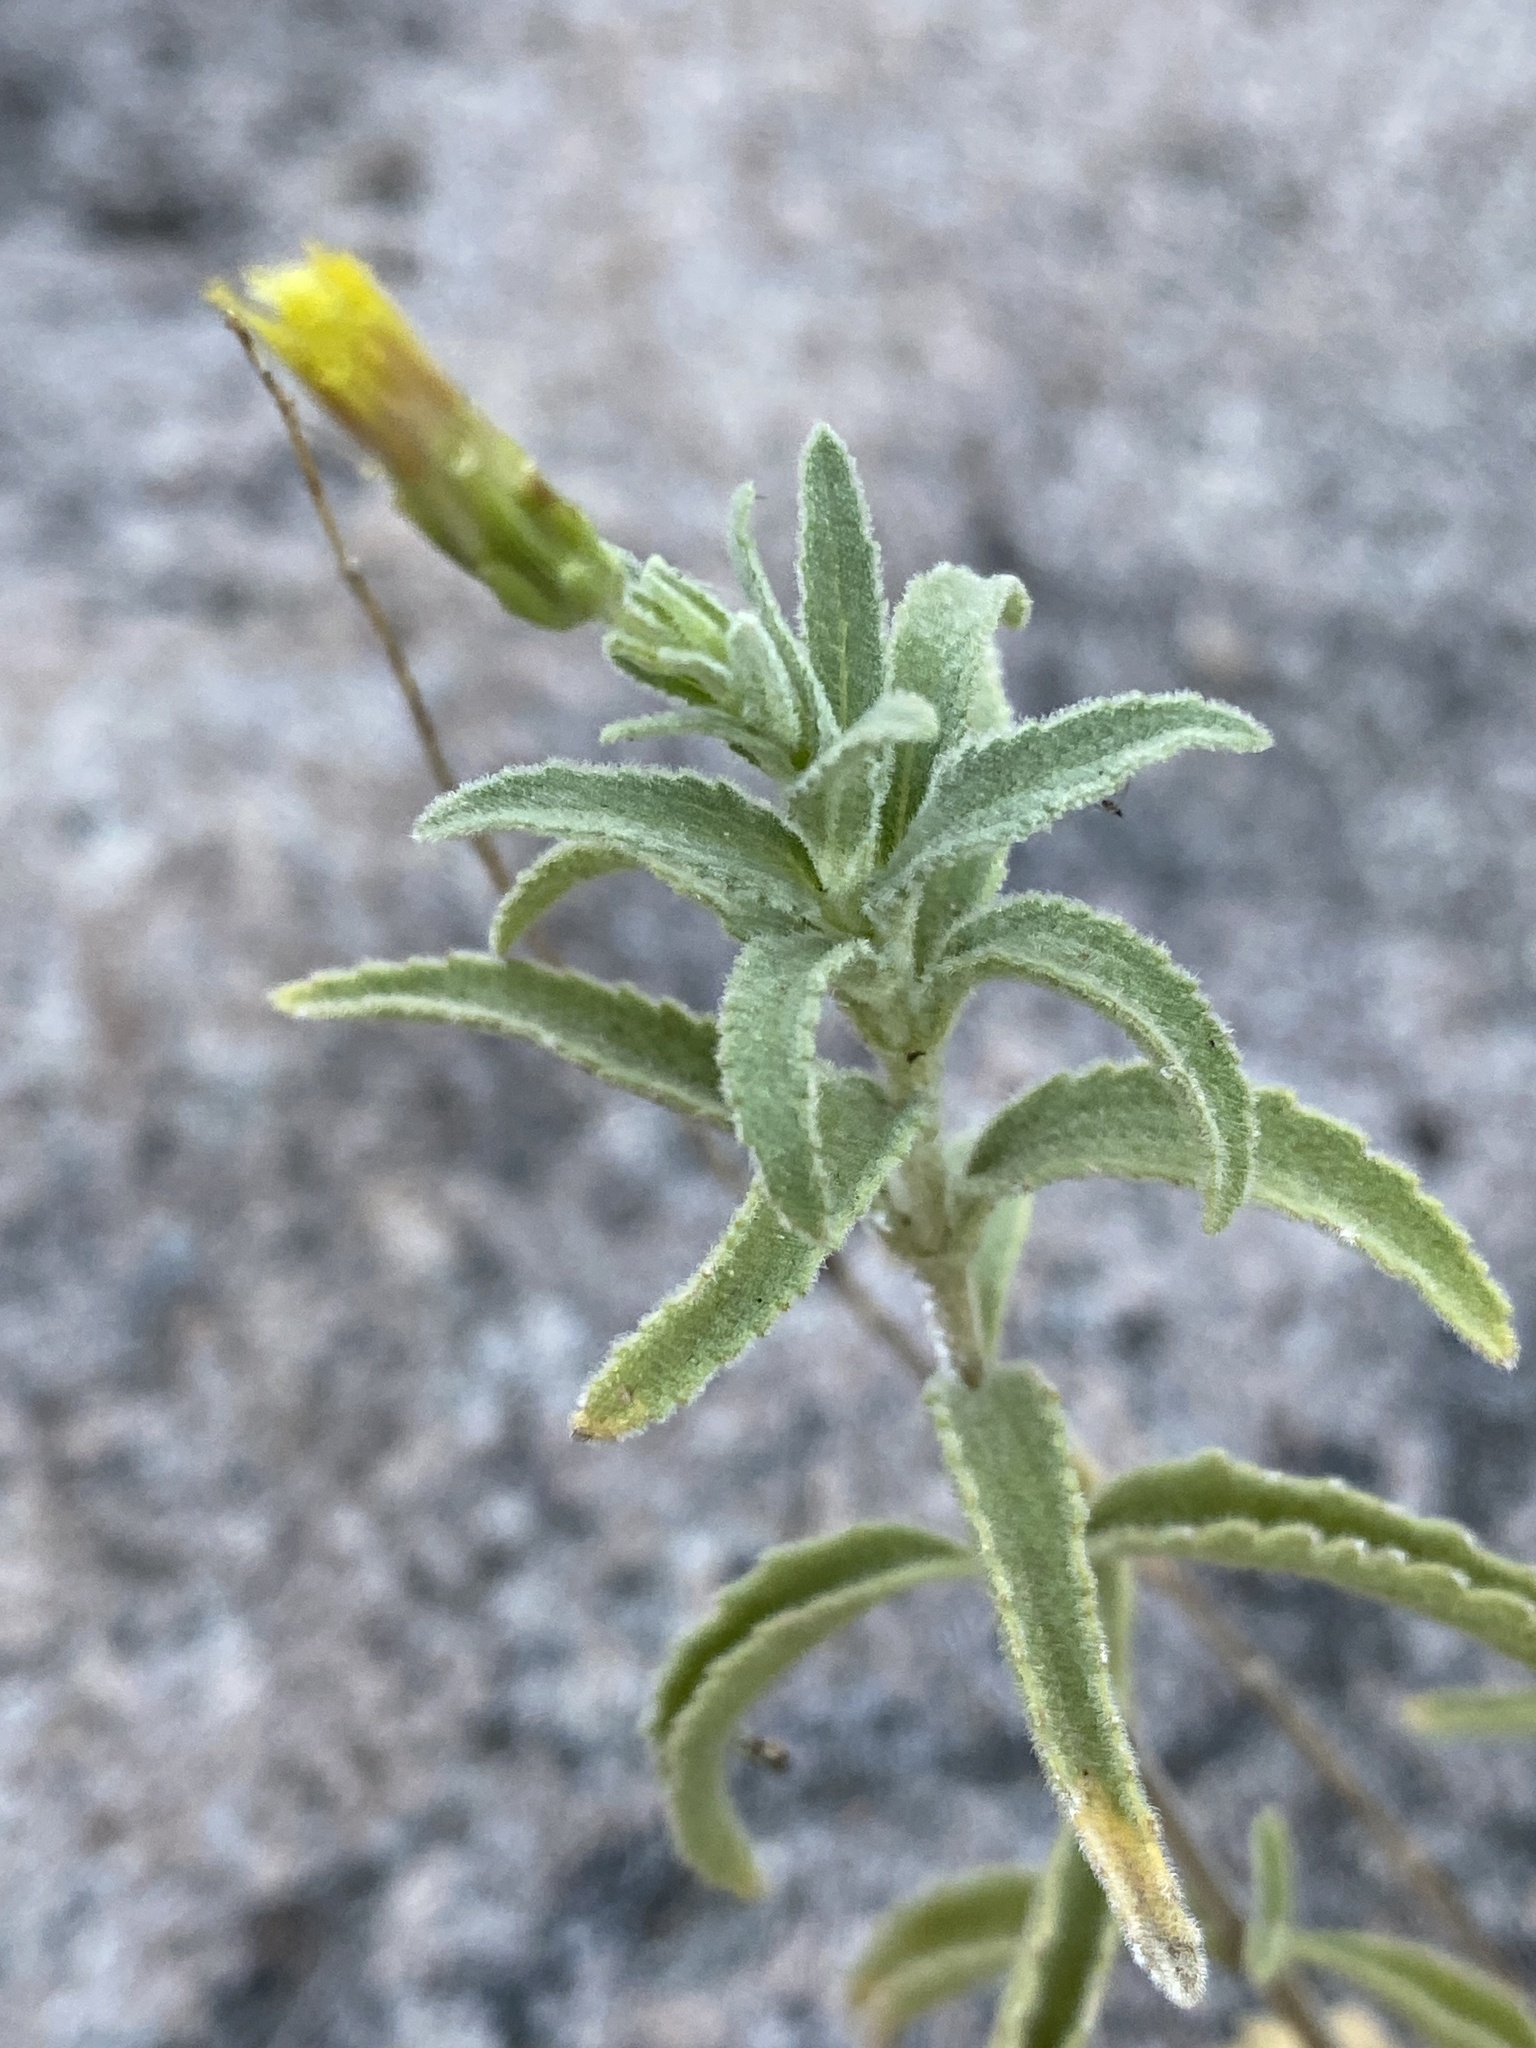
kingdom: Plantae
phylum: Tracheophyta
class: Magnoliopsida
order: Asterales
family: Asteraceae
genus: Brickellia
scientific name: Brickellia lemmonii
